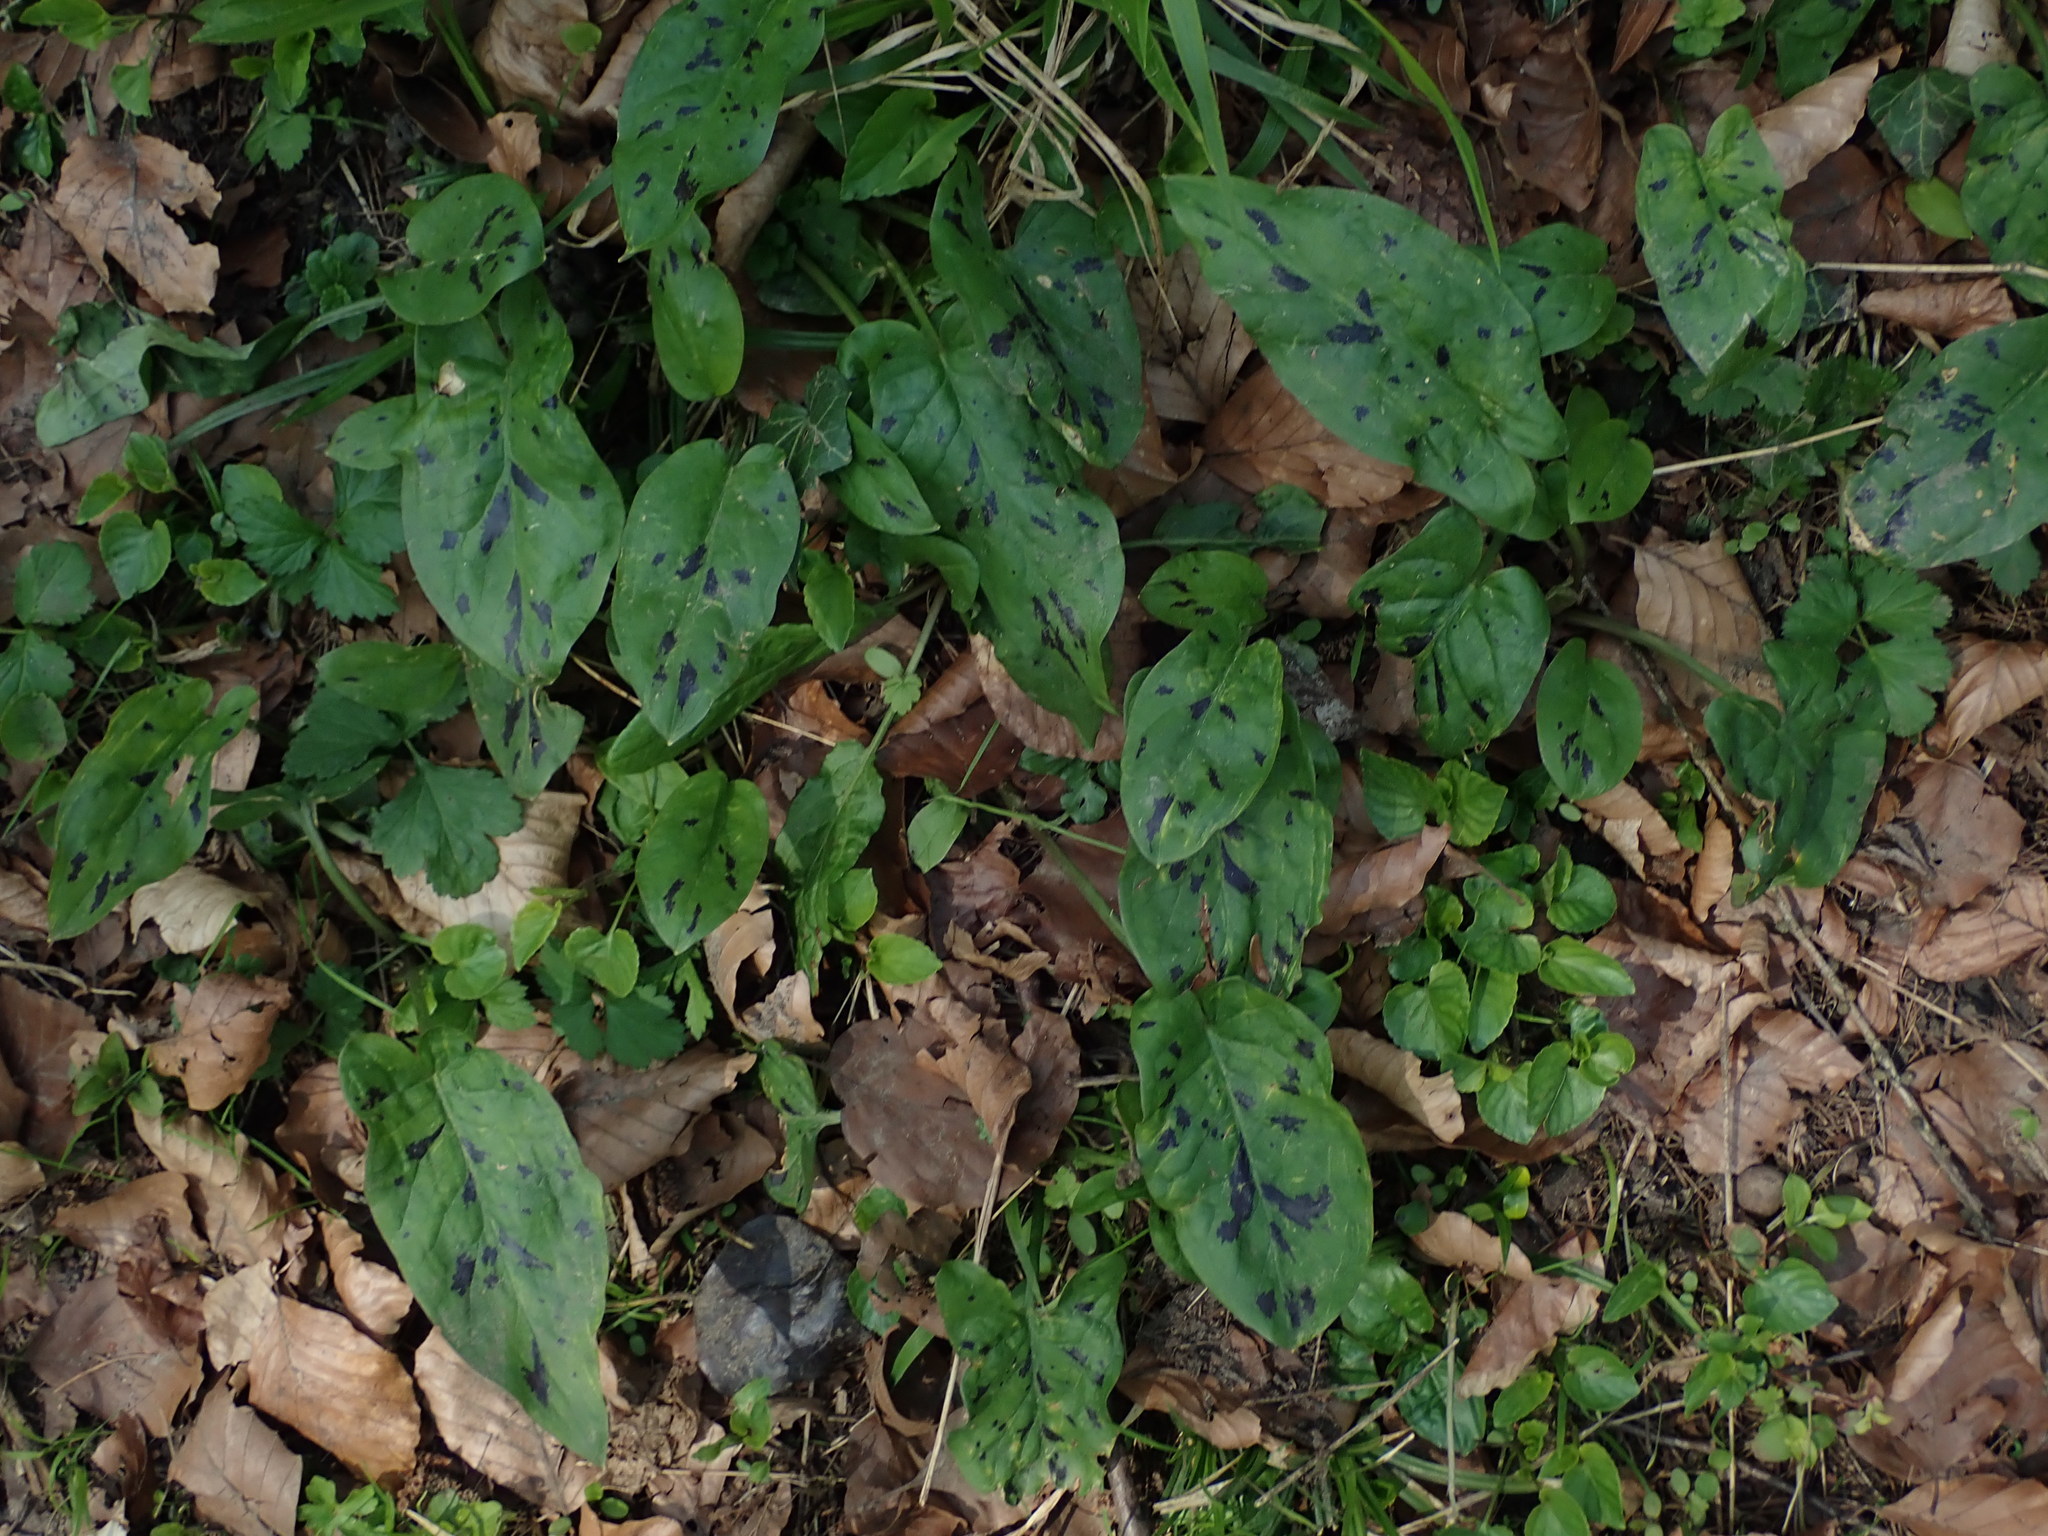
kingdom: Plantae
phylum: Tracheophyta
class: Liliopsida
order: Alismatales
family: Araceae
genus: Arum
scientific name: Arum maculatum
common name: Lords-and-ladies
